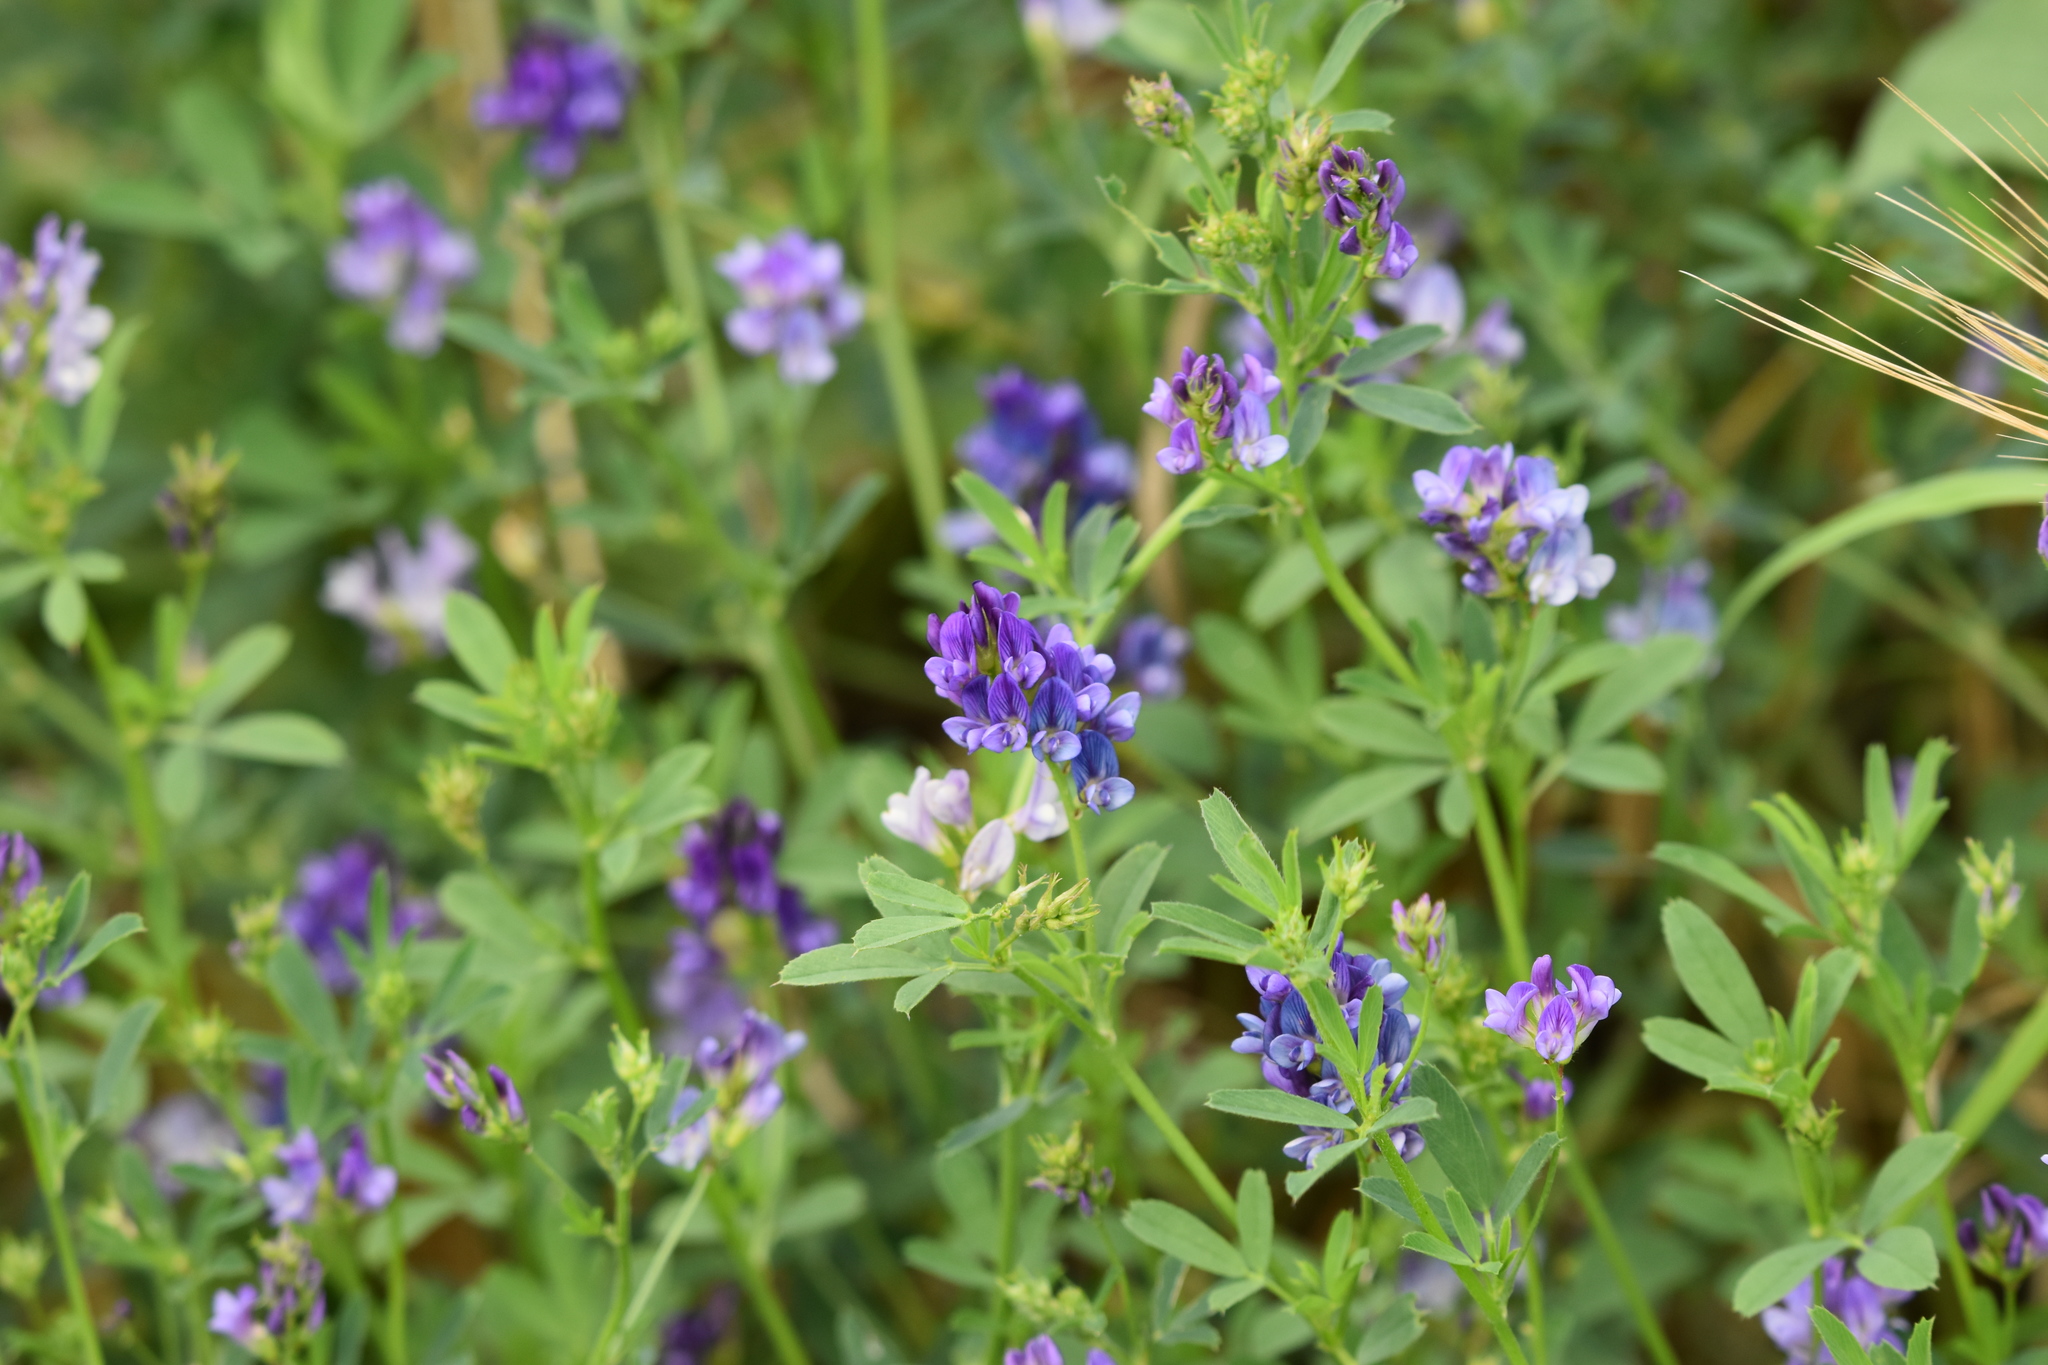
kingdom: Plantae
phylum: Tracheophyta
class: Magnoliopsida
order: Fabales
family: Fabaceae
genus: Medicago
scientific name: Medicago sativa
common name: Alfalfa
